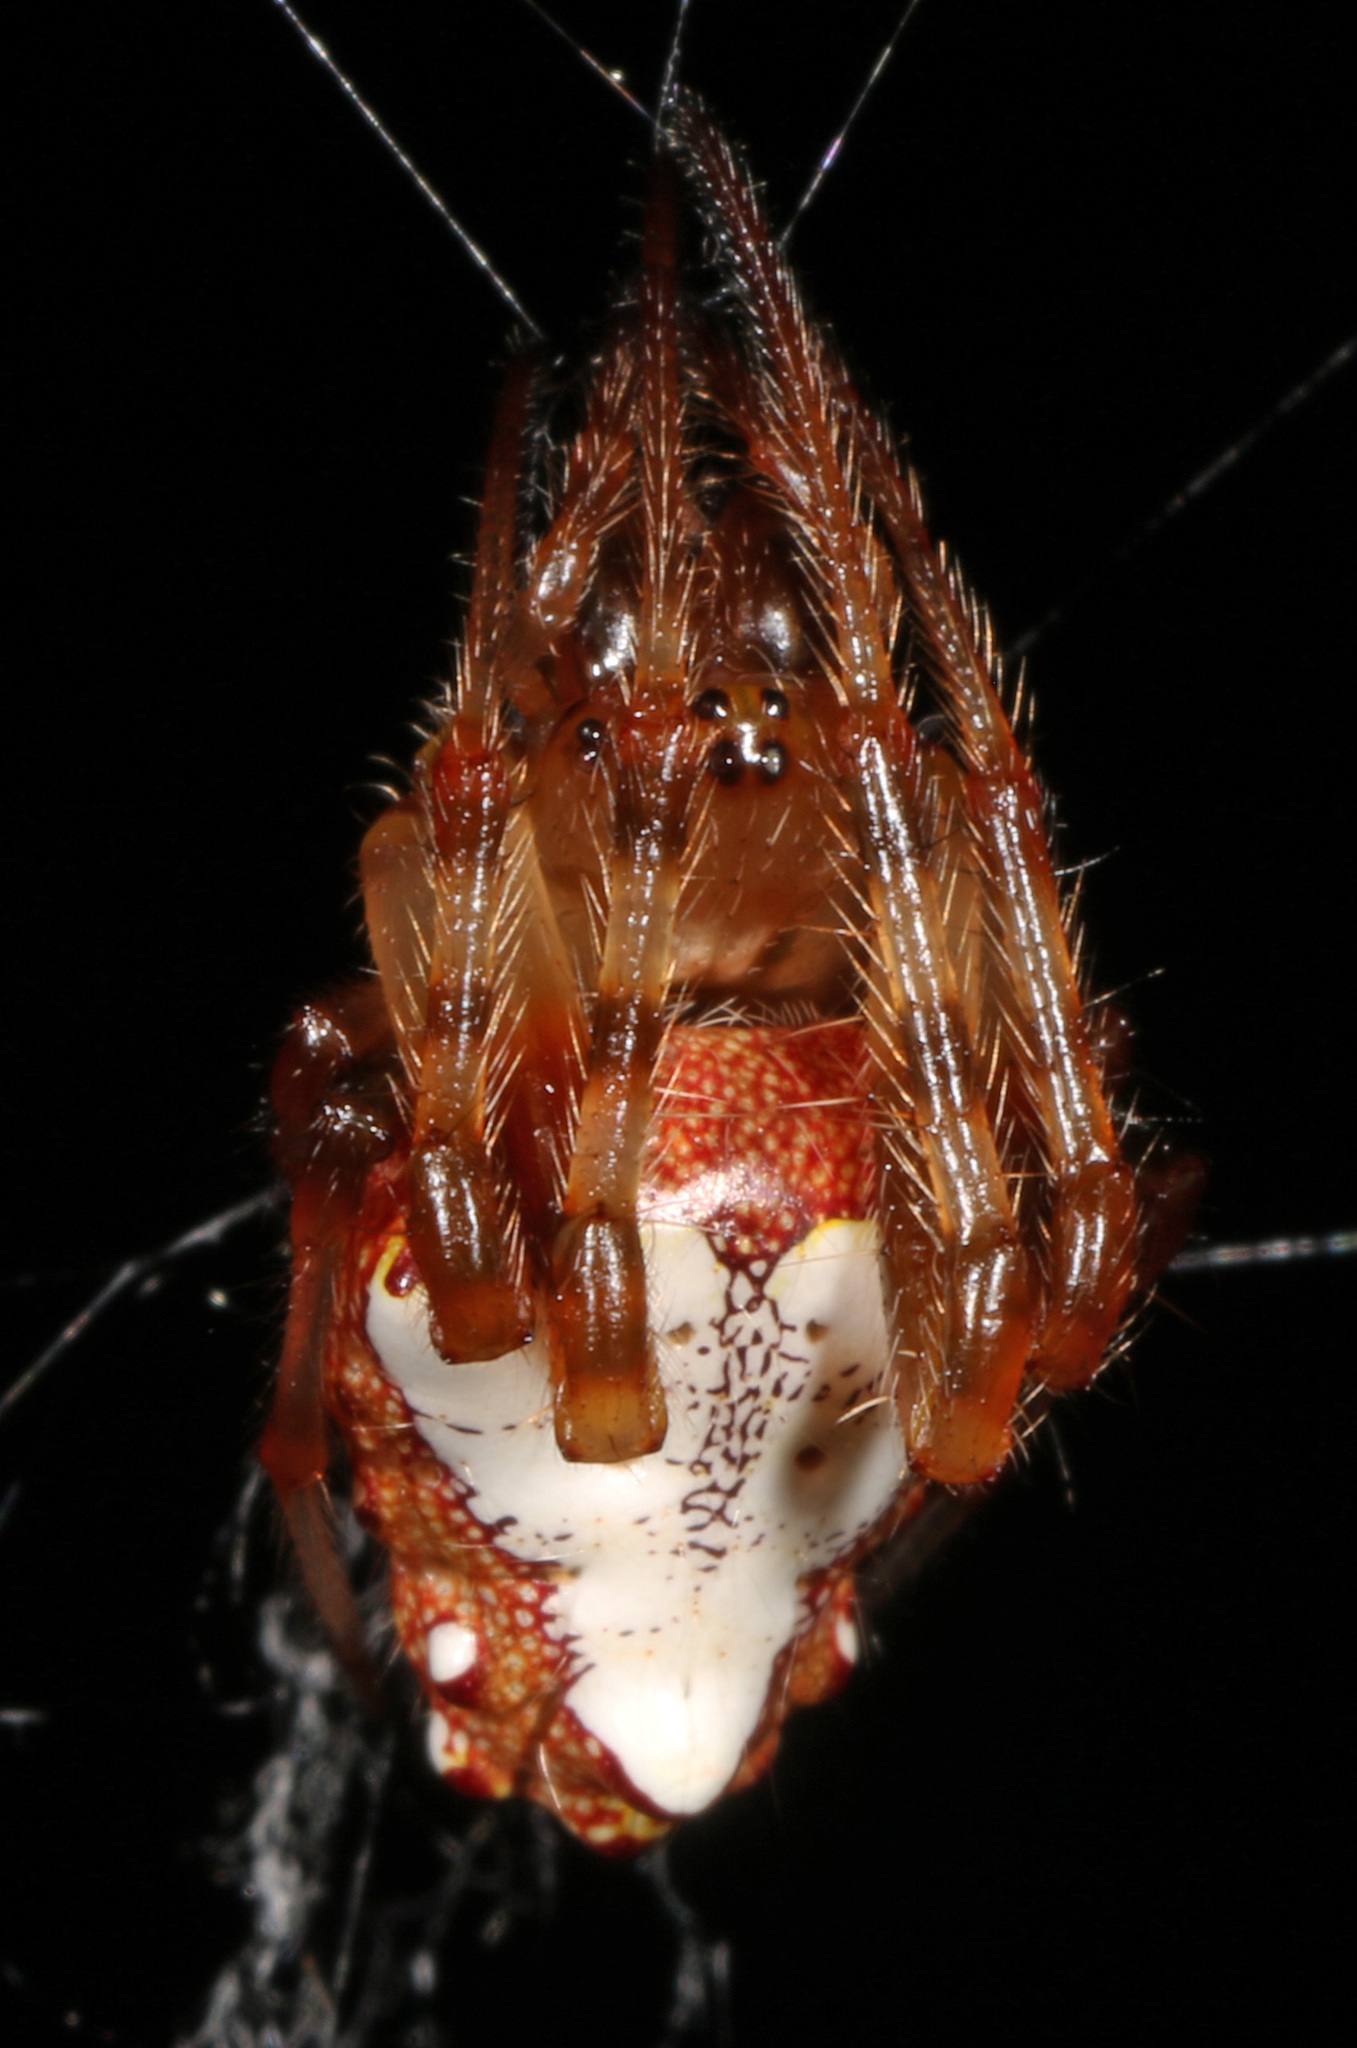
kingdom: Animalia
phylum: Arthropoda
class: Arachnida
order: Araneae
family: Araneidae
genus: Verrucosa
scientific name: Verrucosa arenata
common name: Orb weavers
